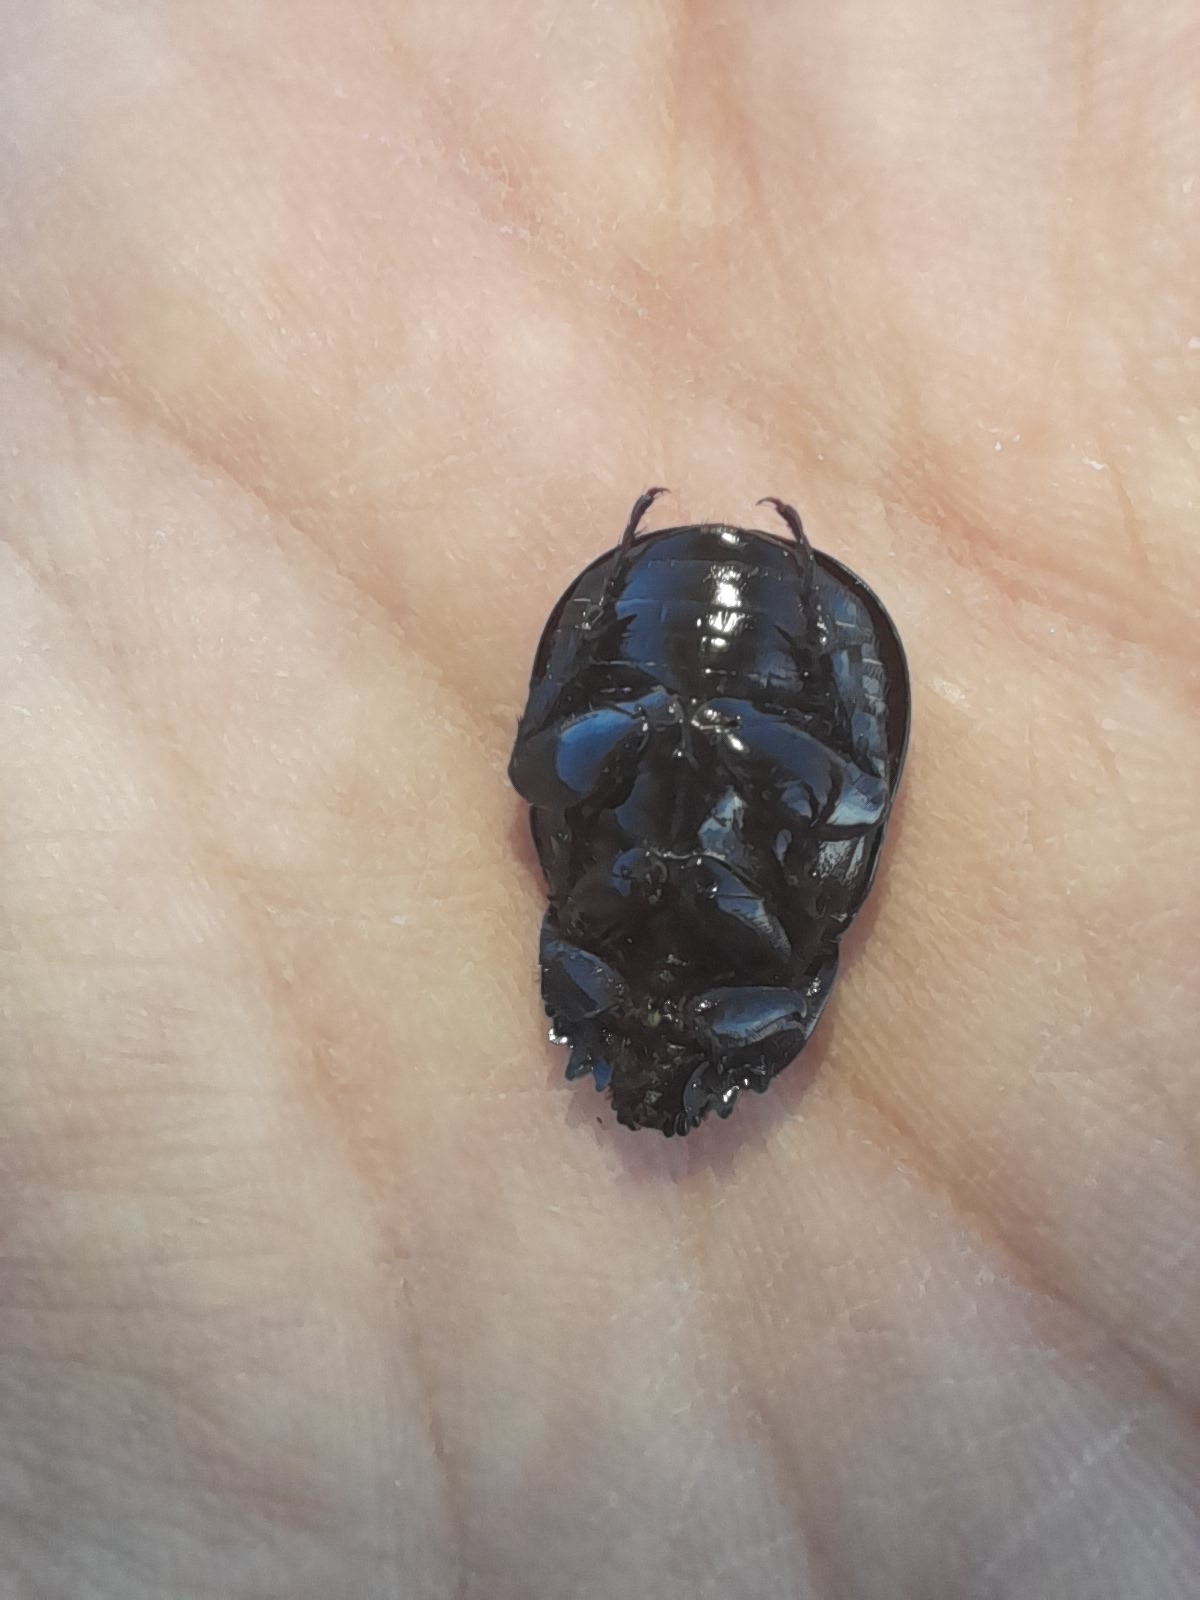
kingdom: Animalia
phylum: Arthropoda
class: Insecta
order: Coleoptera
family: Scarabaeidae
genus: Pentodon
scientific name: Pentodon bidens
